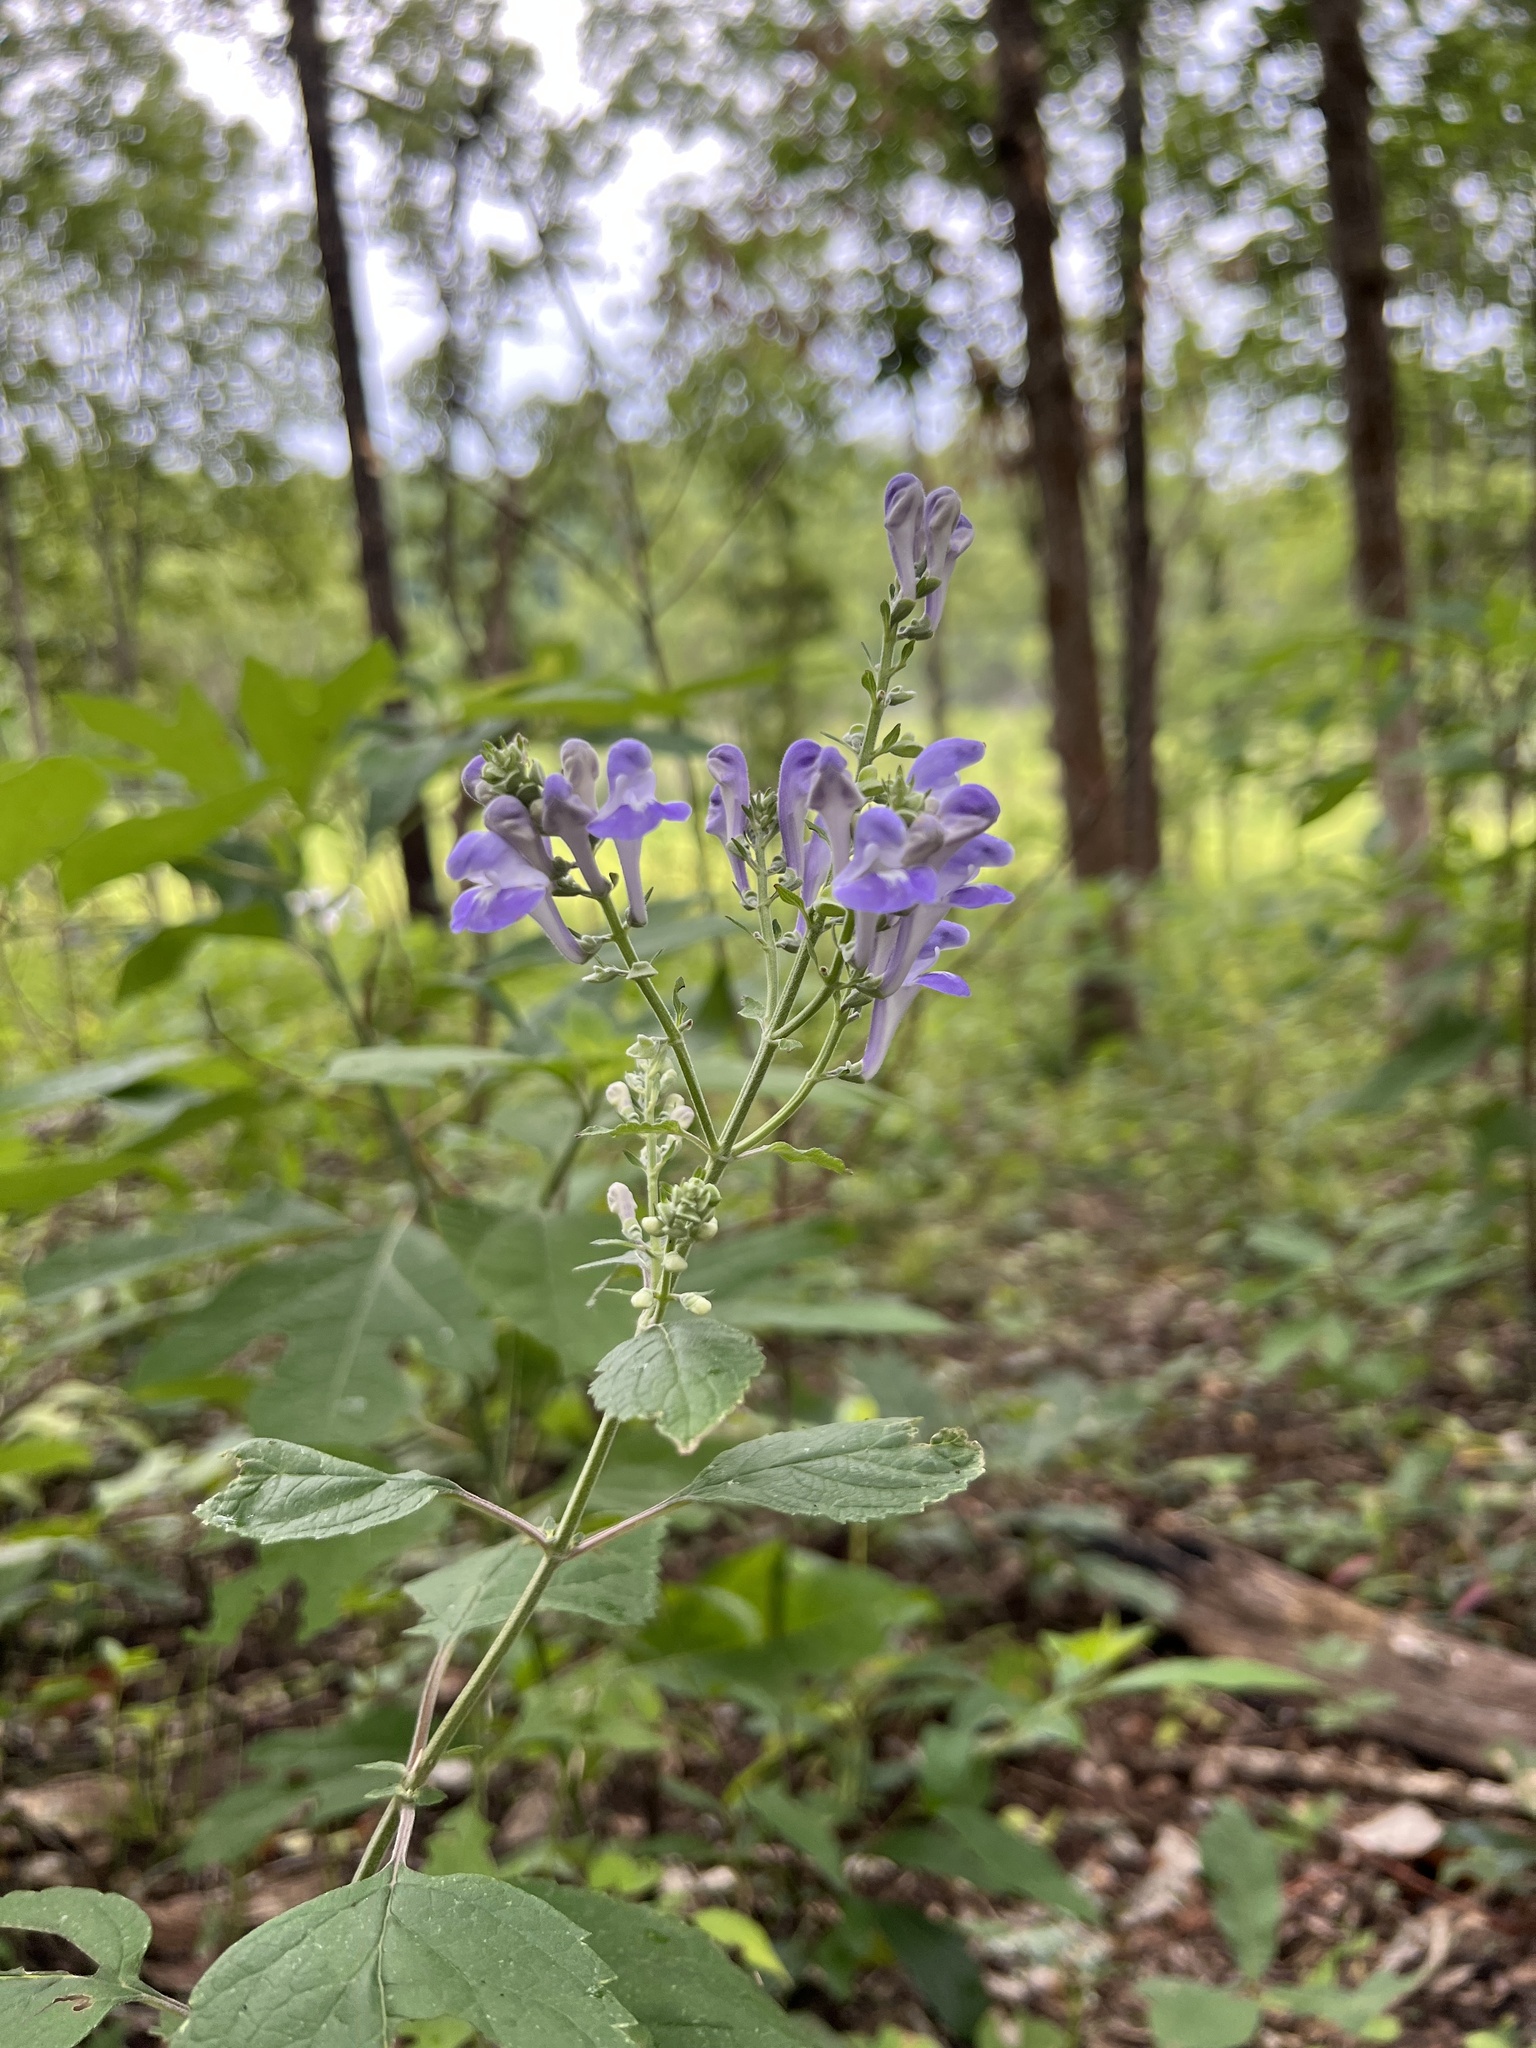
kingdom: Plantae
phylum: Tracheophyta
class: Magnoliopsida
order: Lamiales
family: Lamiaceae
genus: Scutellaria
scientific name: Scutellaria incana
